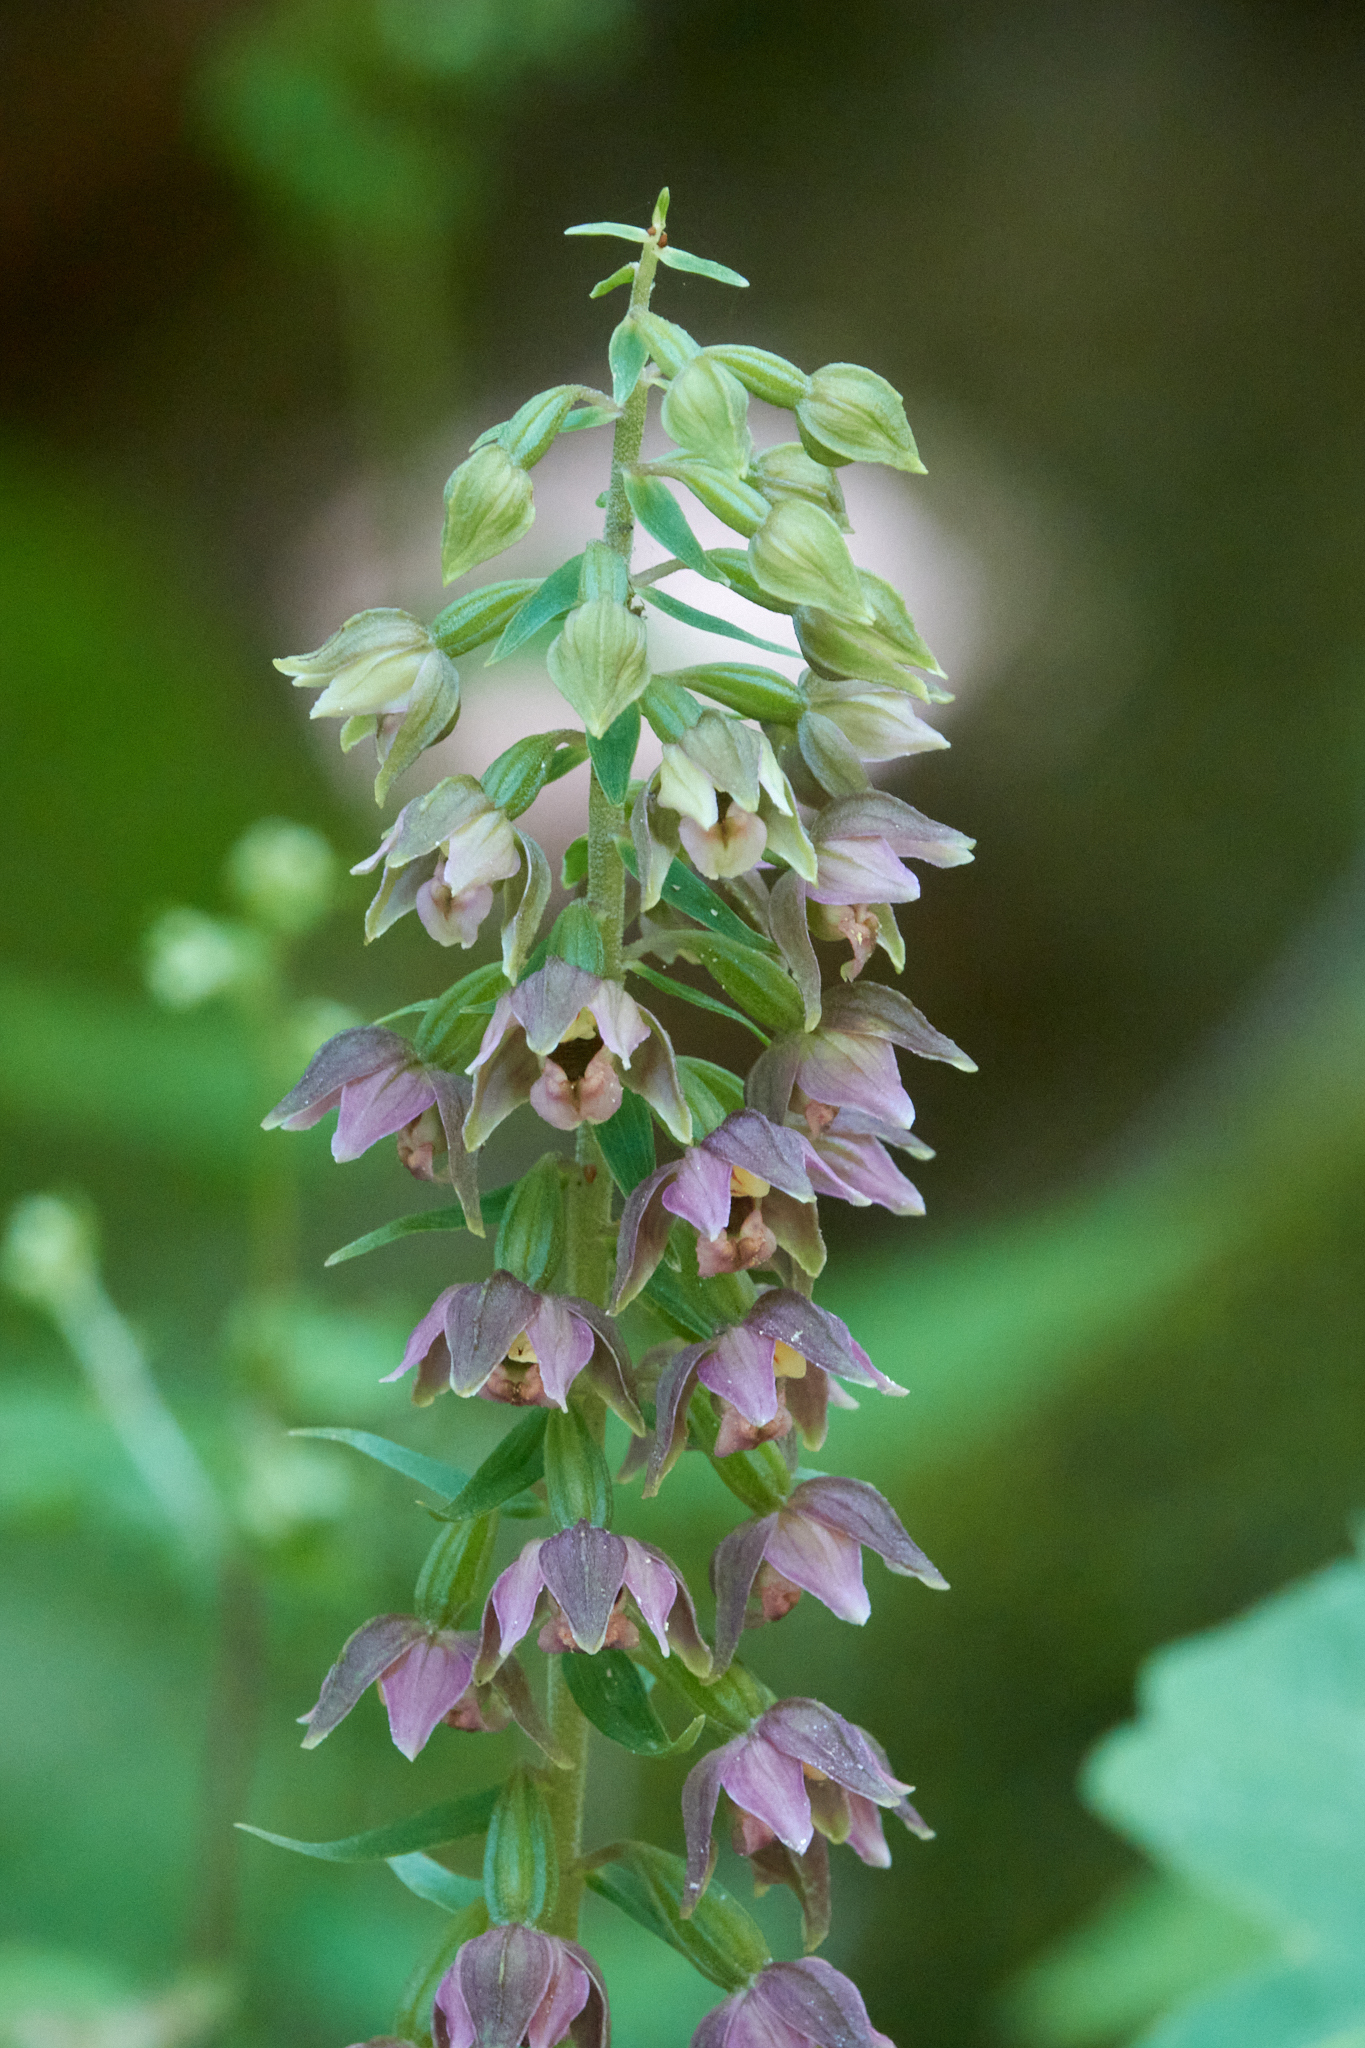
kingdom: Plantae
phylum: Tracheophyta
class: Liliopsida
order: Asparagales
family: Orchidaceae
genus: Epipactis
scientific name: Epipactis helleborine
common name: Broad-leaved helleborine
